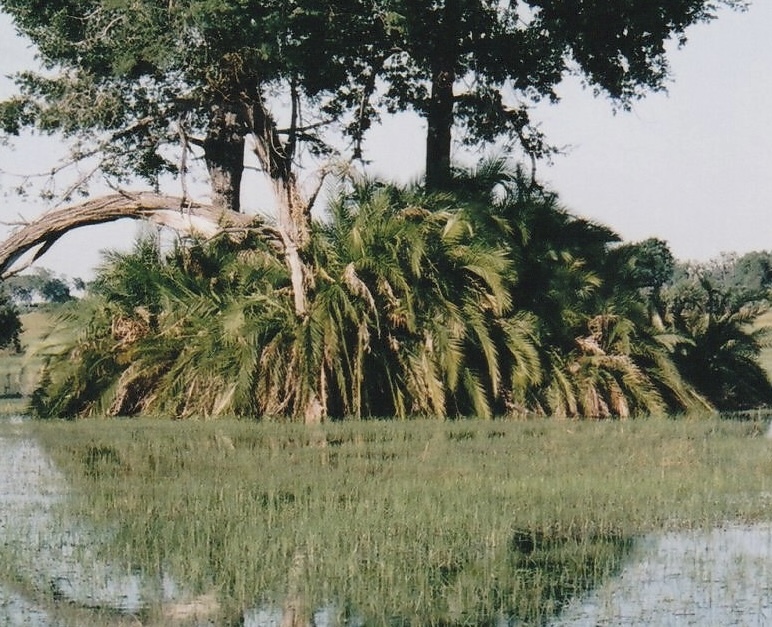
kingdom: Plantae
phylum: Tracheophyta
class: Liliopsida
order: Arecales
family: Arecaceae
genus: Phoenix
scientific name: Phoenix reclinata
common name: Senegal date palm
